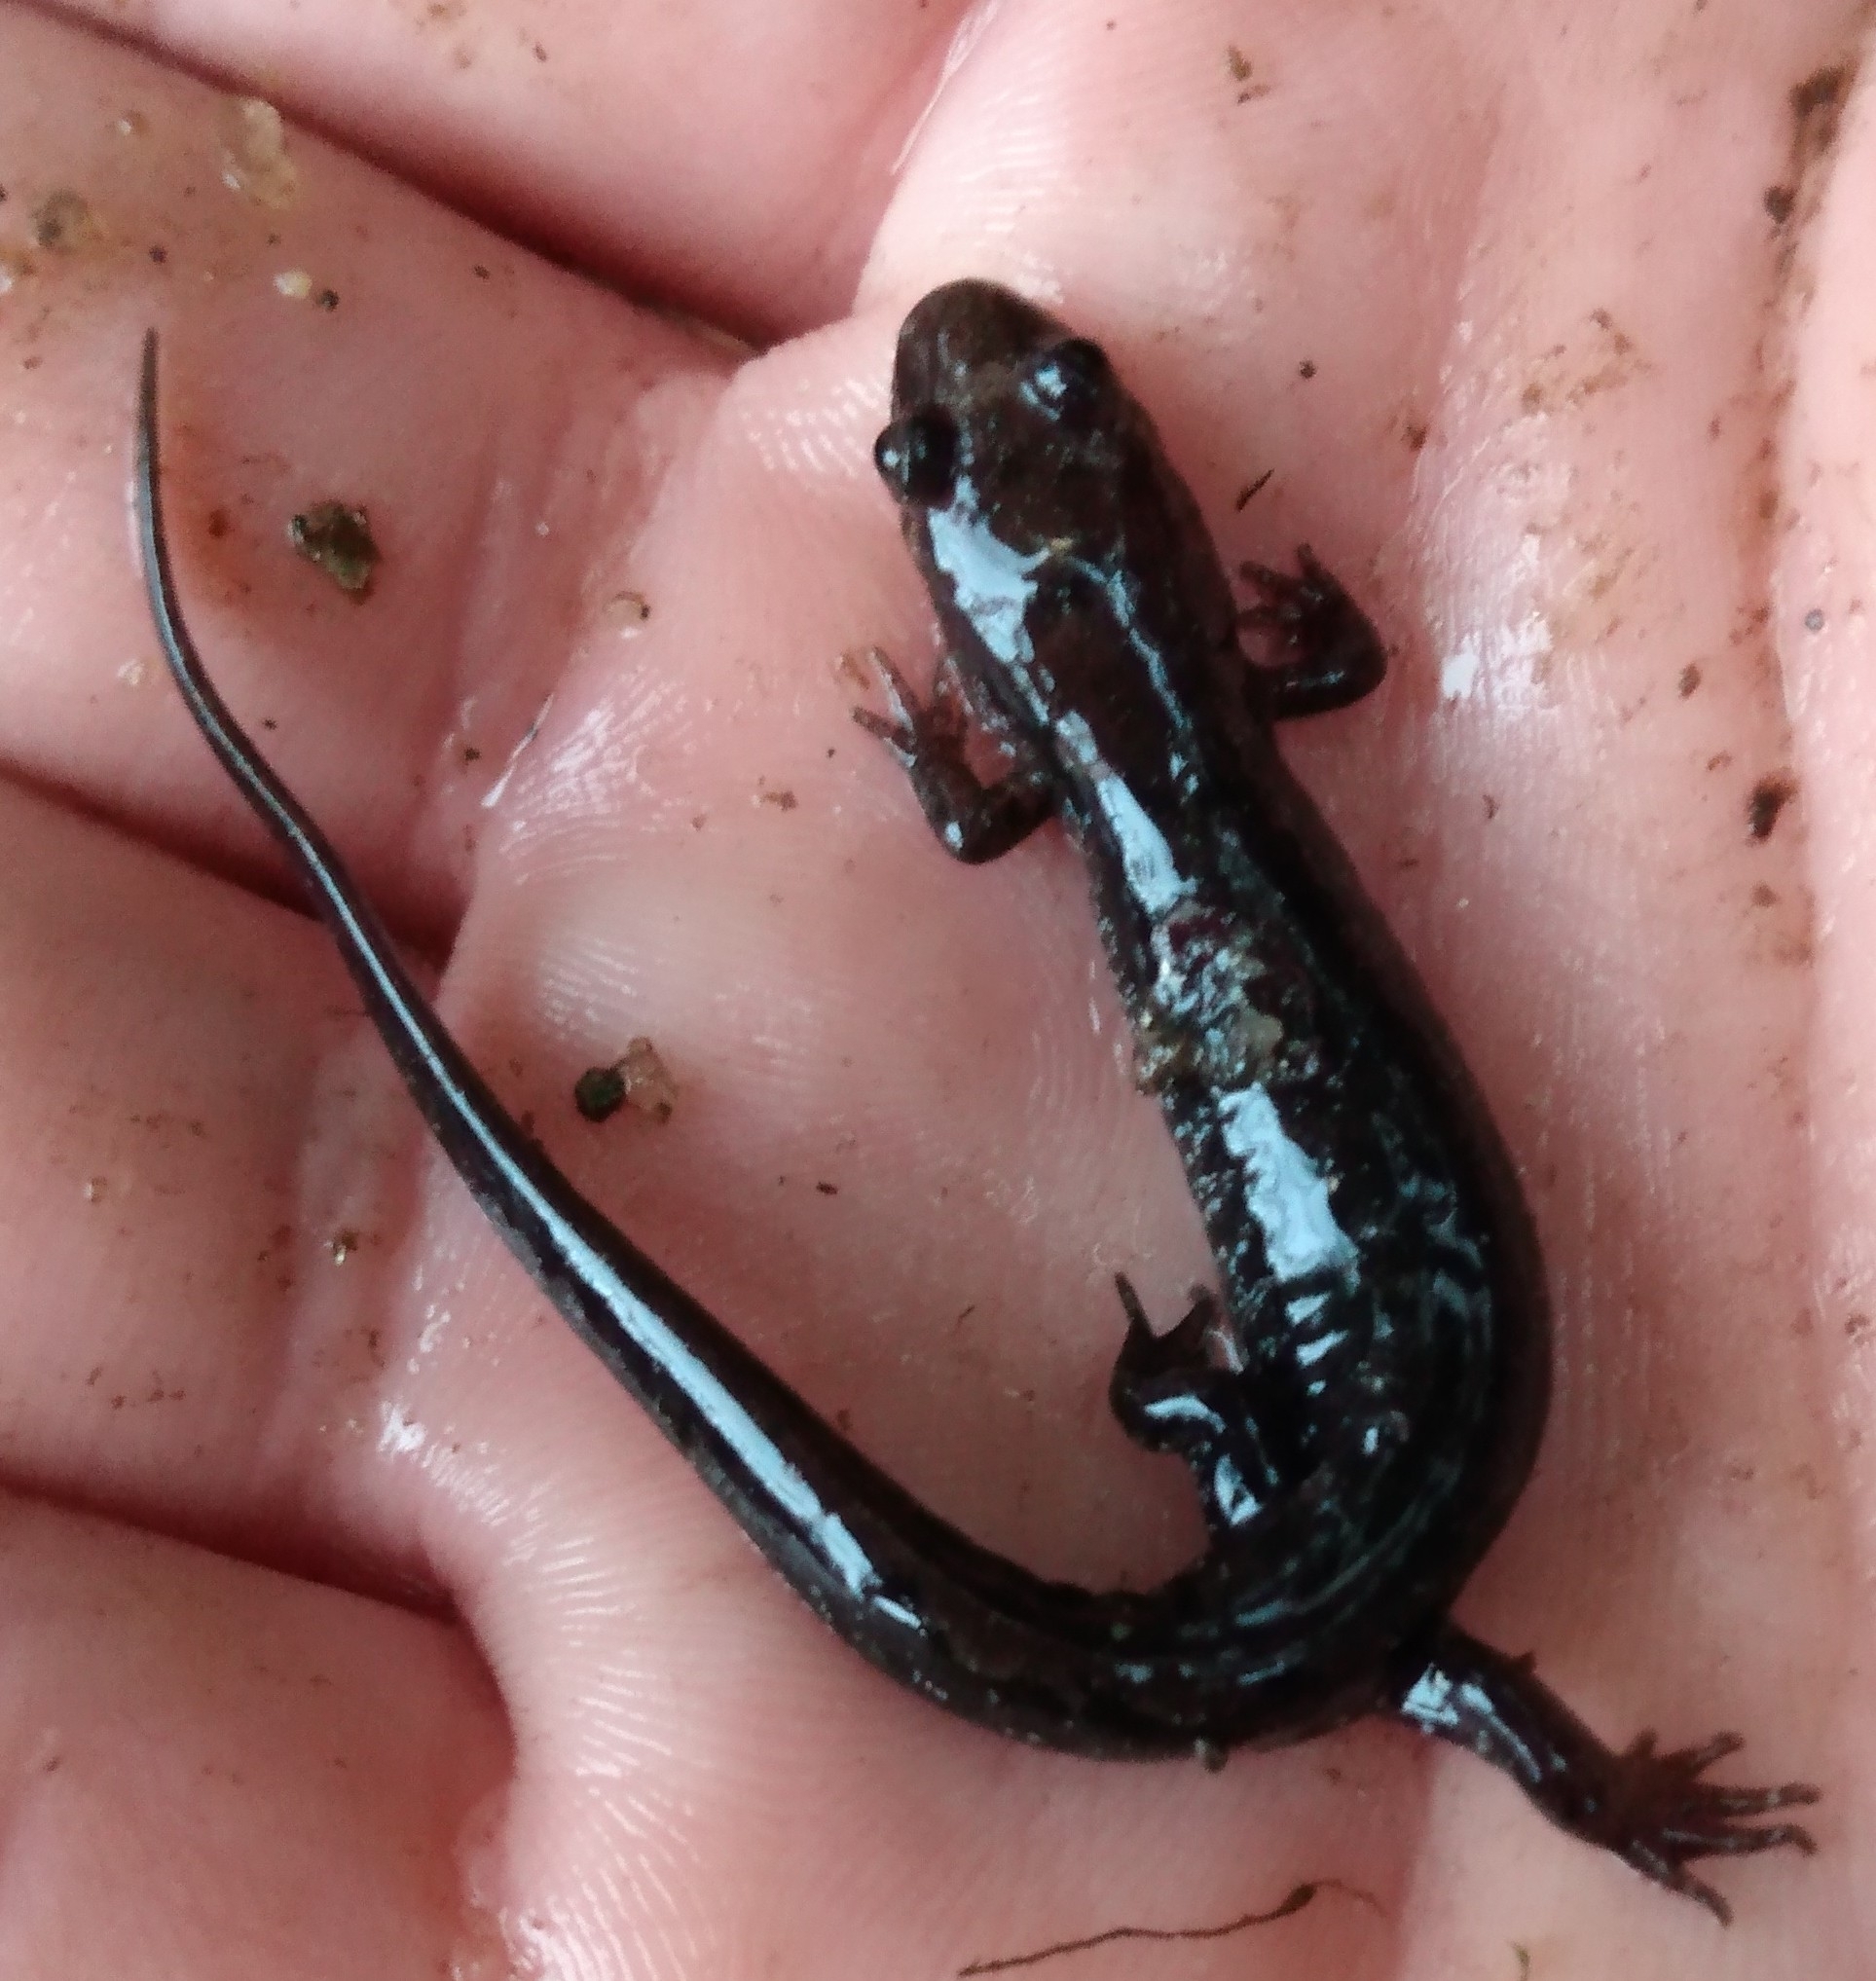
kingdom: Animalia
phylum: Chordata
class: Amphibia
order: Caudata
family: Plethodontidae
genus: Desmognathus
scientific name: Desmognathus ocoee
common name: Ocoee salamander
